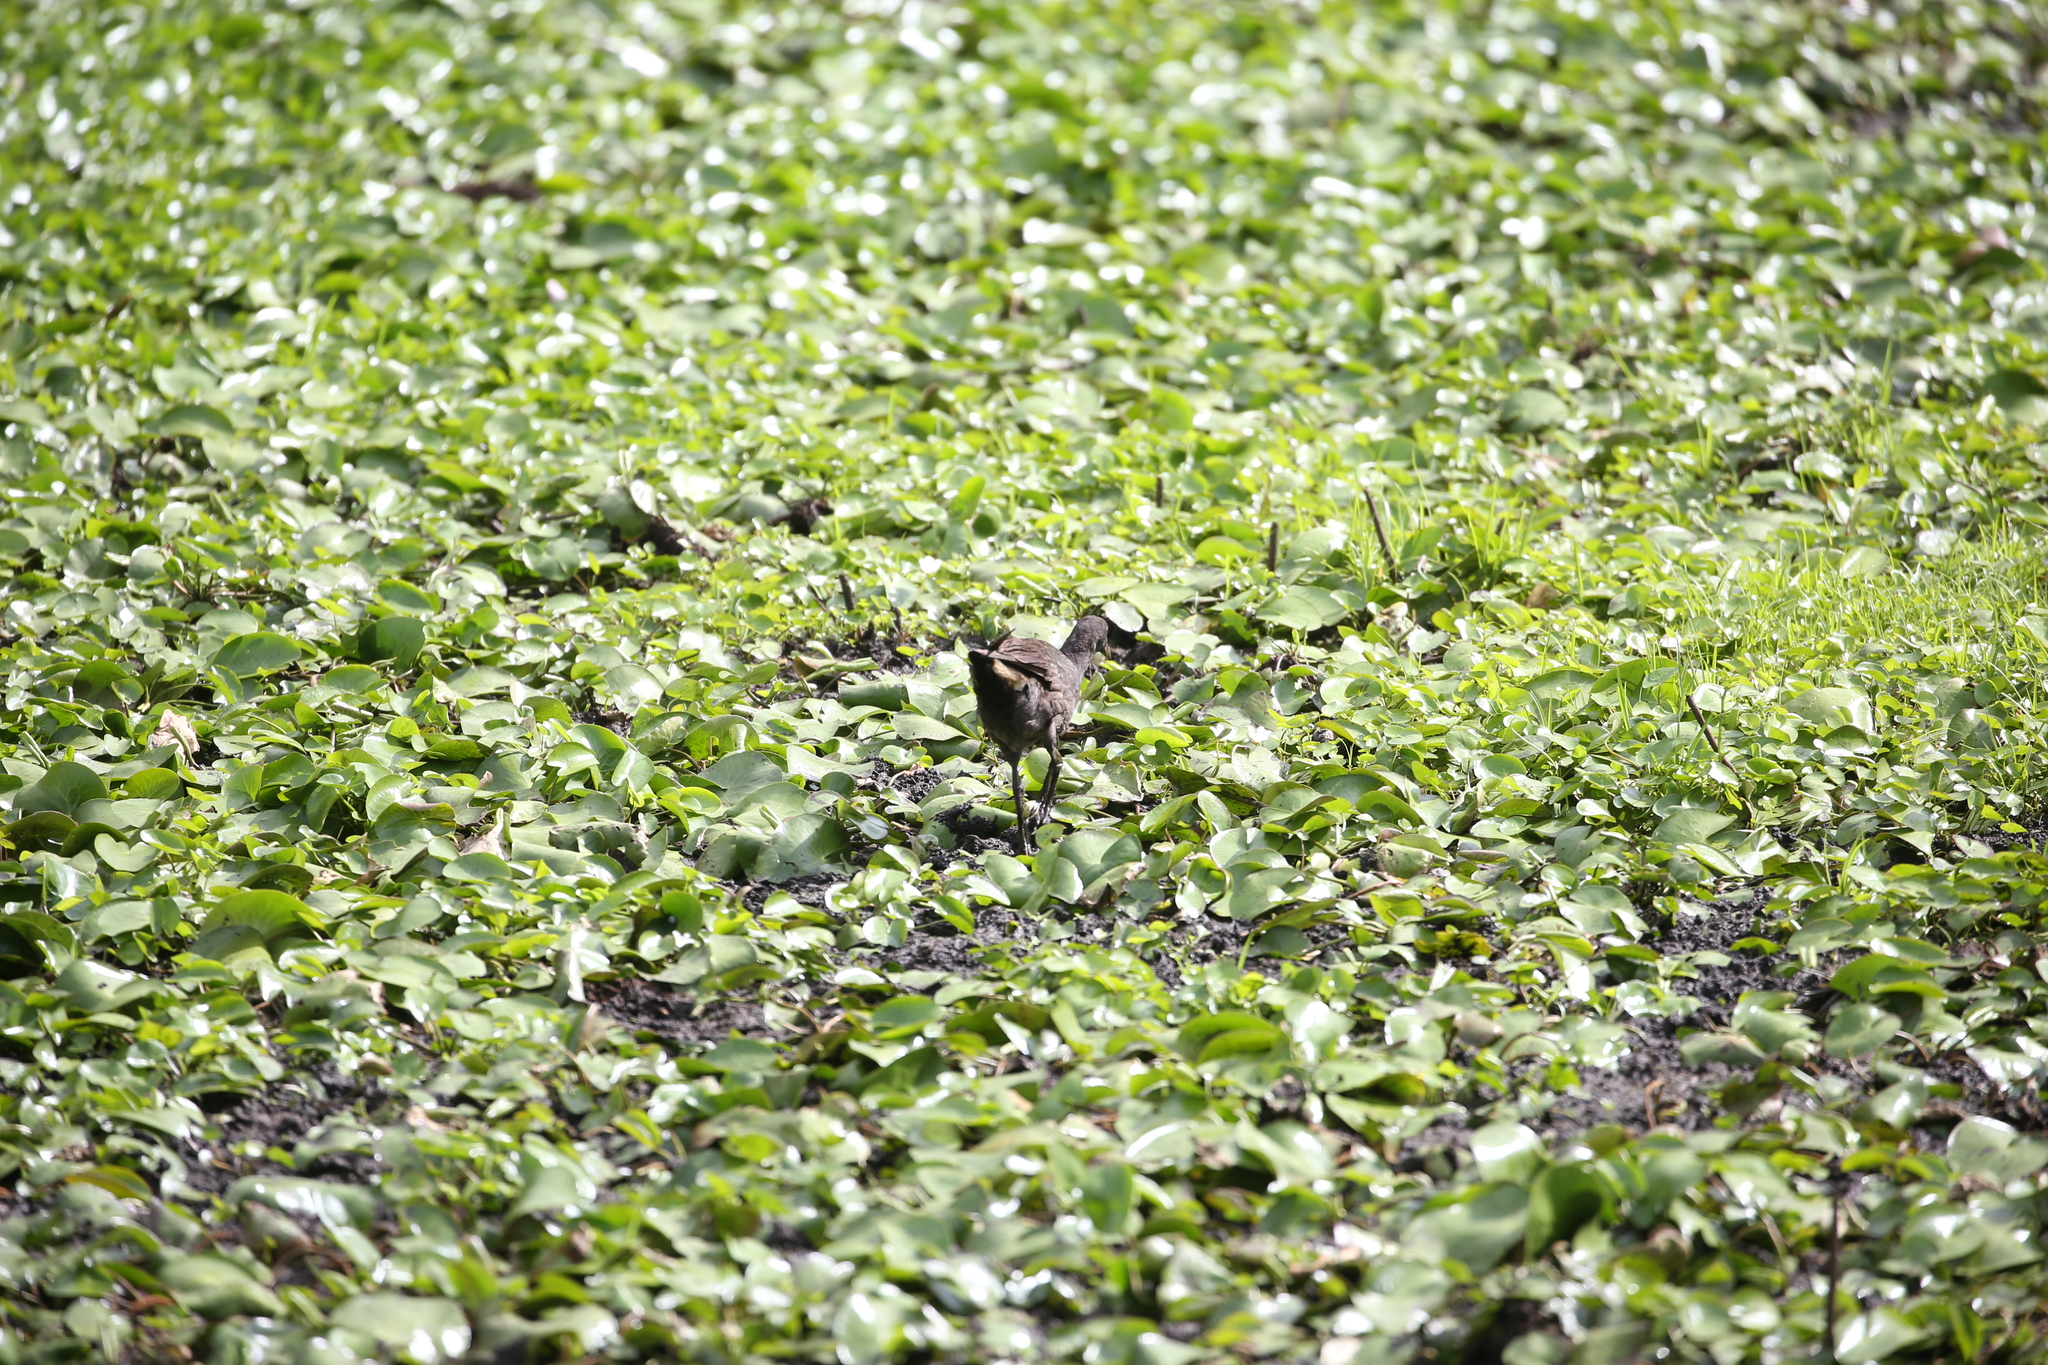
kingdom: Animalia
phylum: Chordata
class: Aves
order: Gruiformes
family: Rallidae
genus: Gallinula
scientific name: Gallinula tenebrosa
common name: Dusky moorhen
